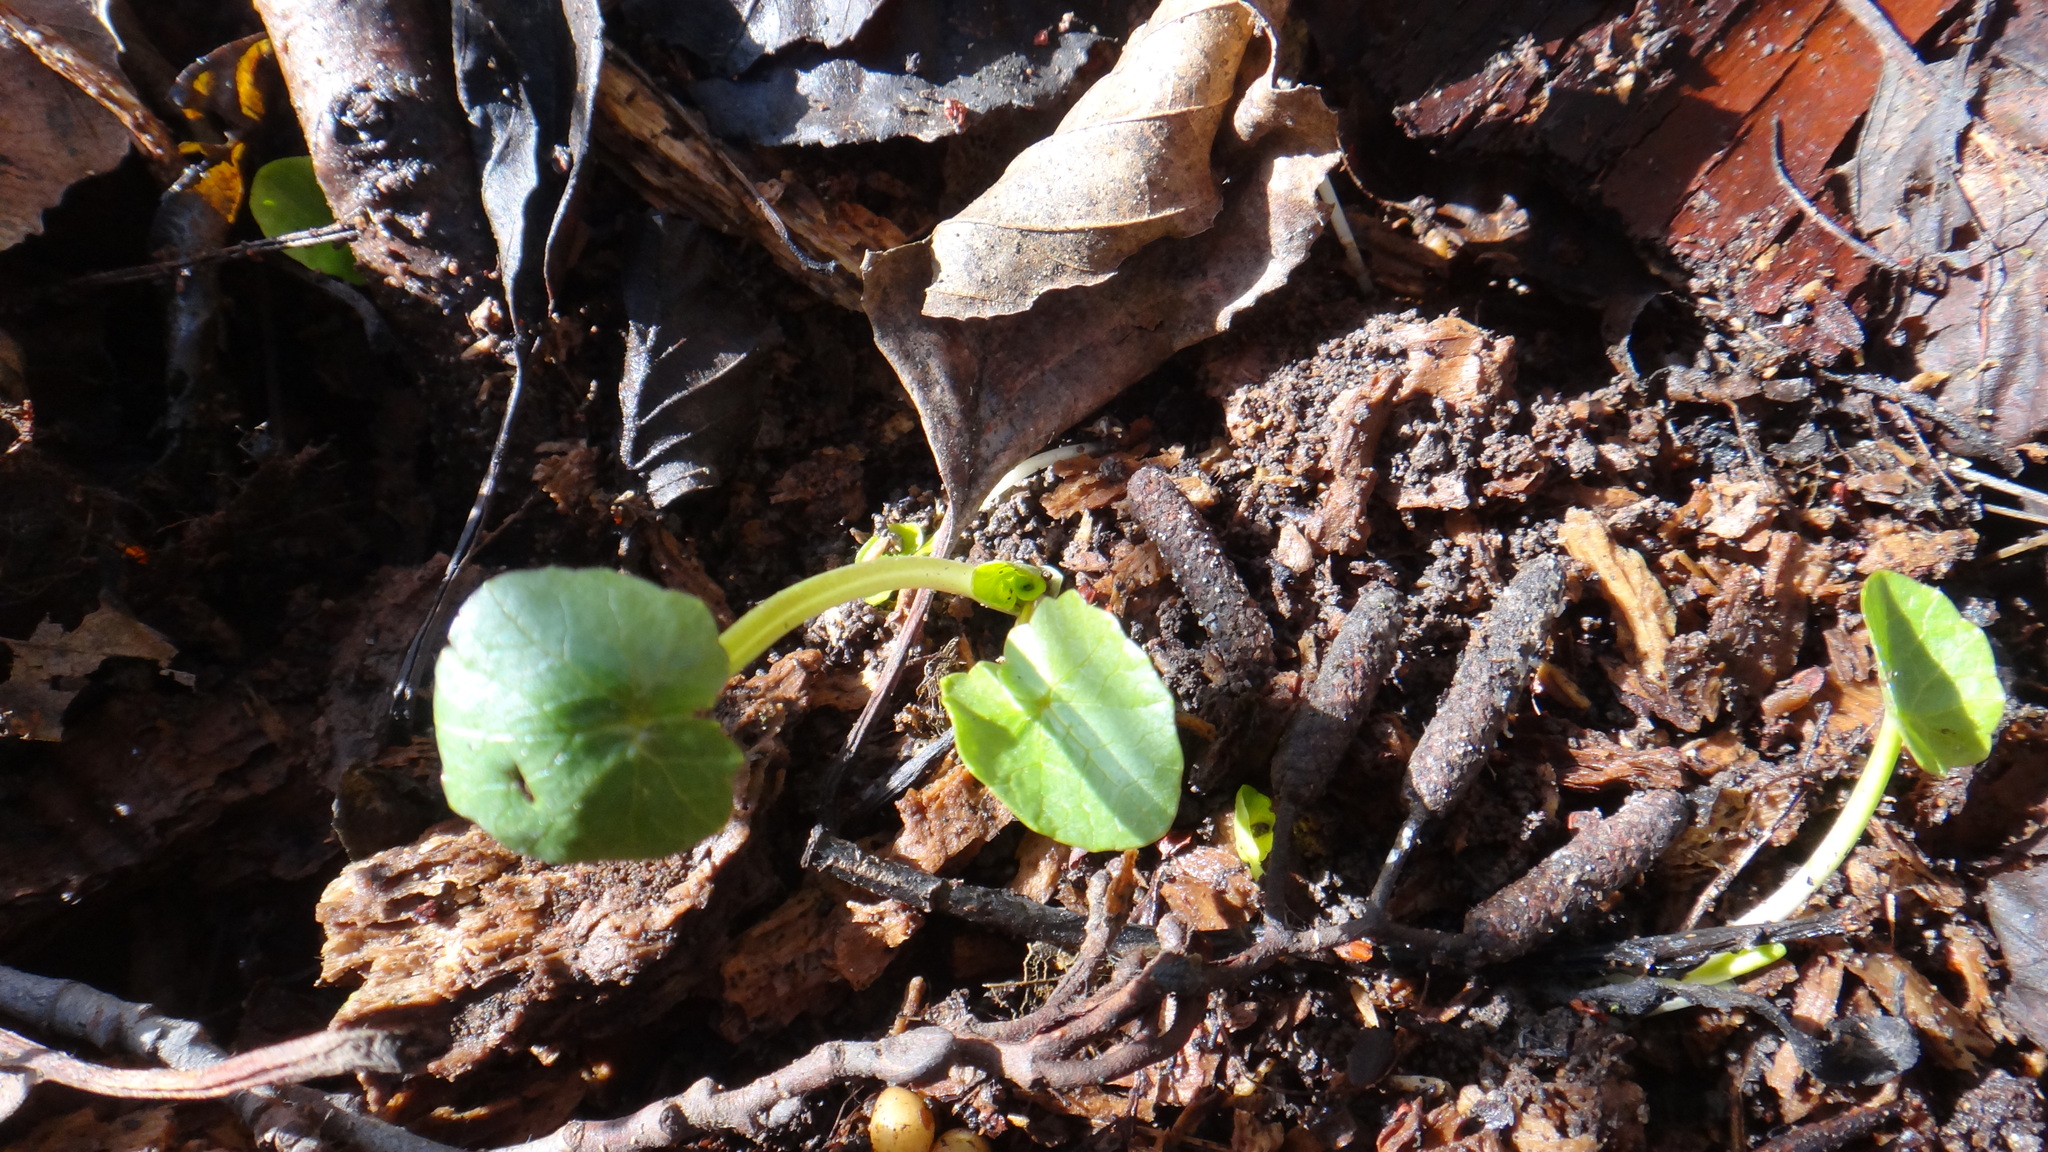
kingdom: Plantae
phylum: Tracheophyta
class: Magnoliopsida
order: Ranunculales
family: Ranunculaceae
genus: Ficaria
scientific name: Ficaria verna
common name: Lesser celandine
